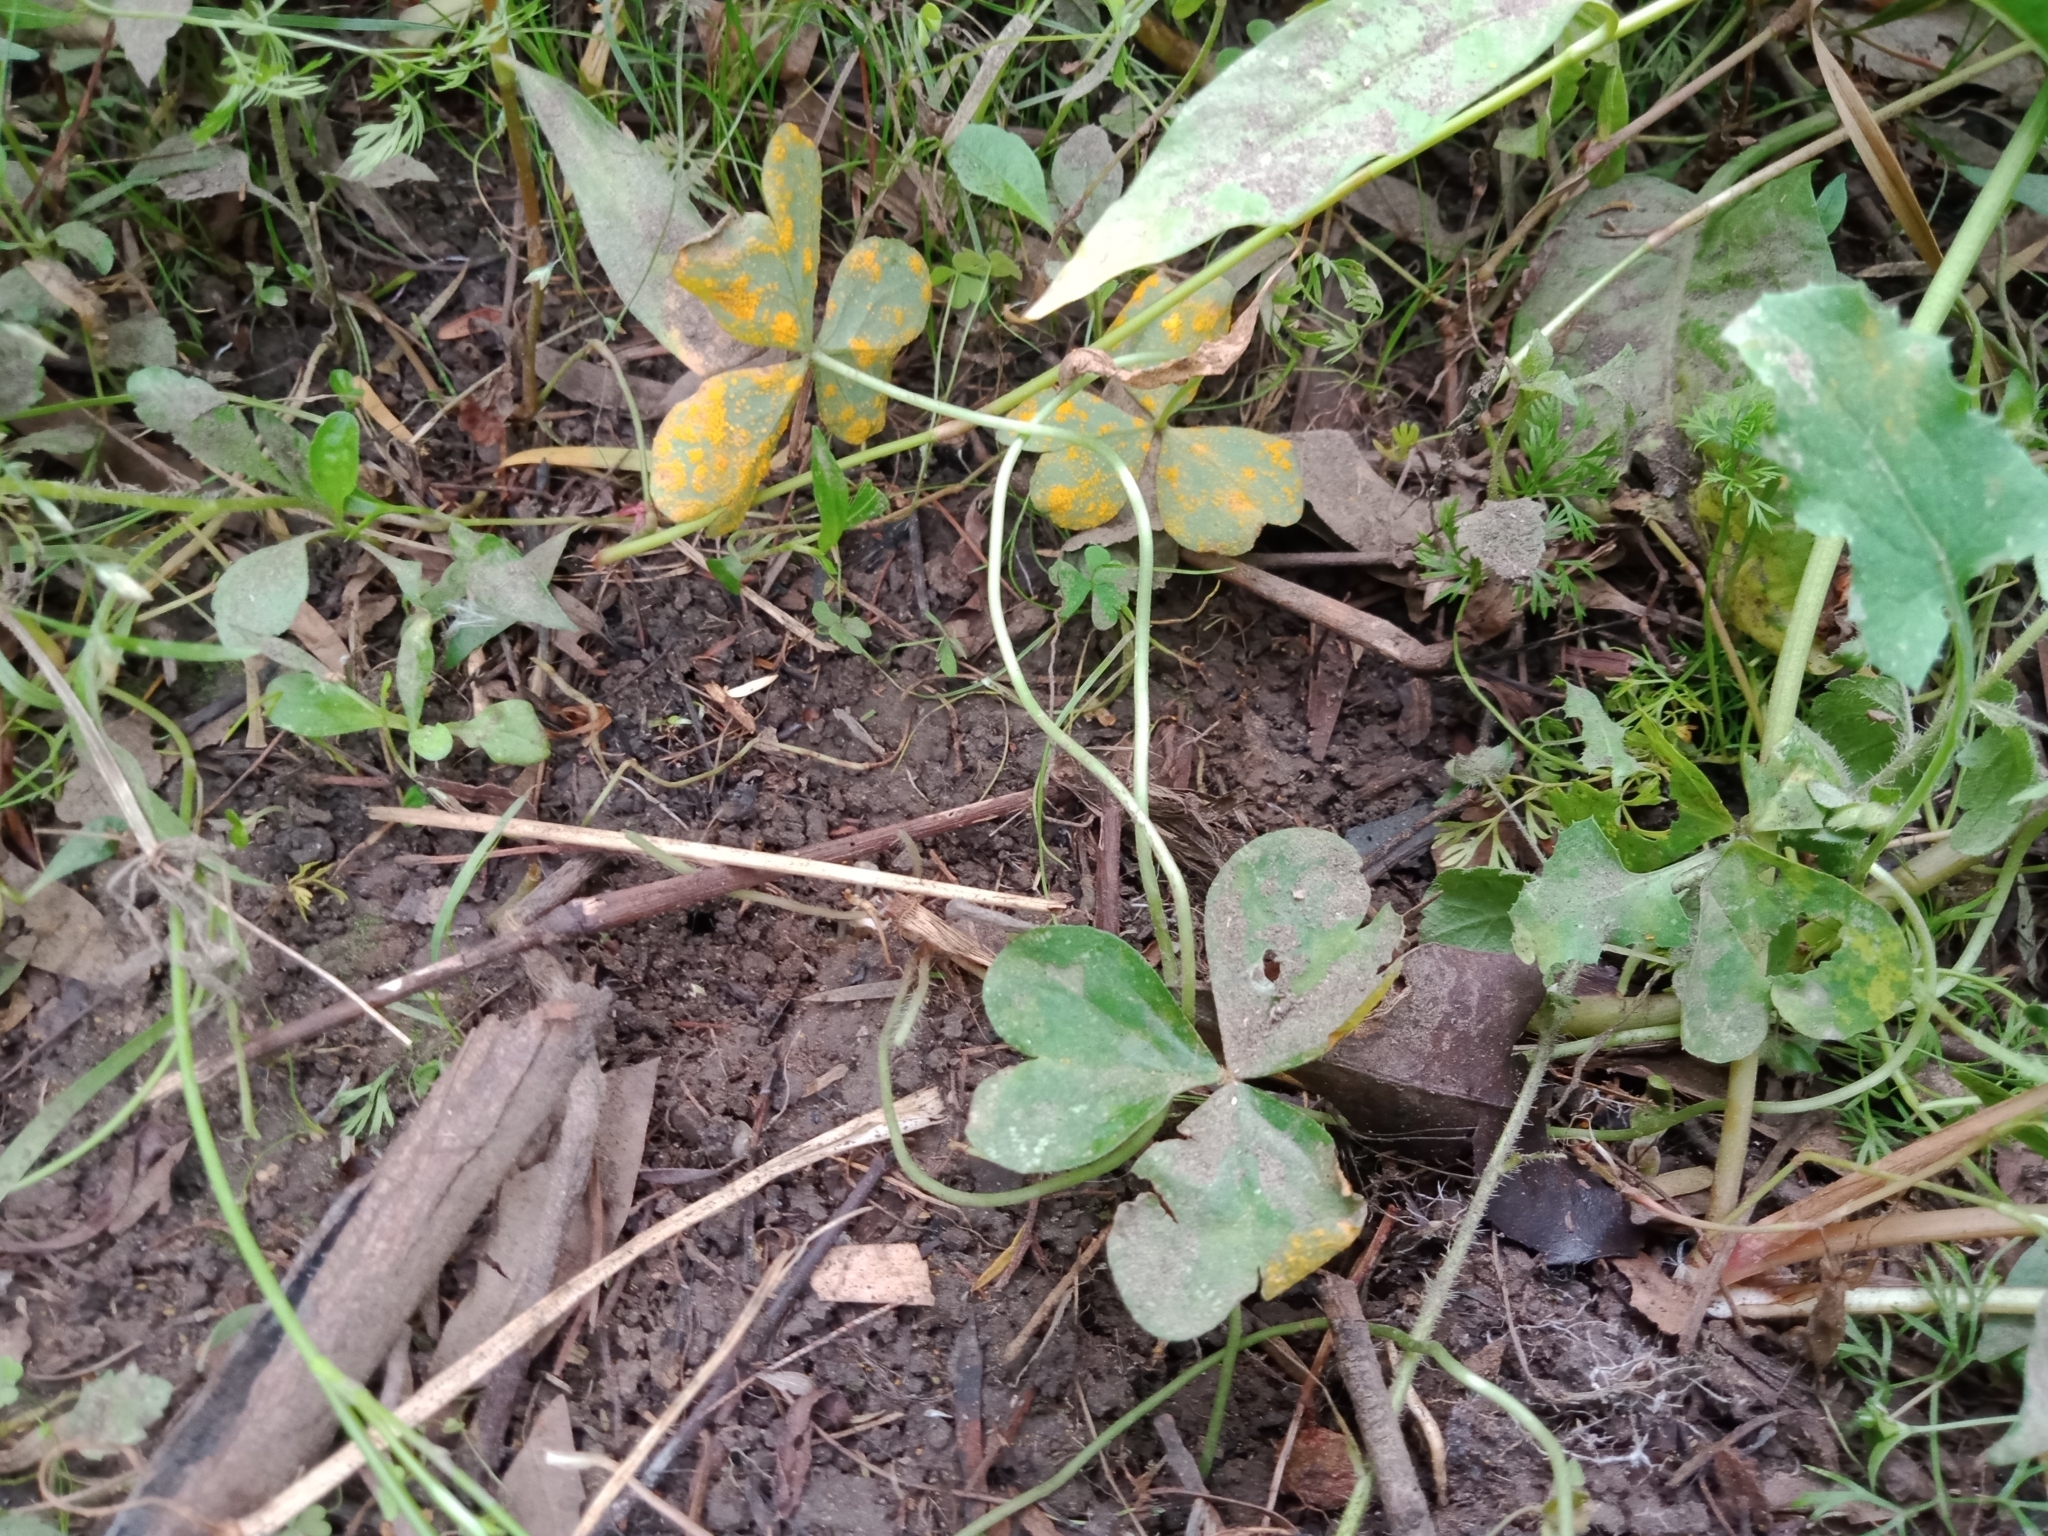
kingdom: Fungi
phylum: Basidiomycota
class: Pucciniomycetes
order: Pucciniales
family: Pucciniaceae
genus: Puccinia
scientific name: Puccinia oxalidis
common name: Oxalis rust
